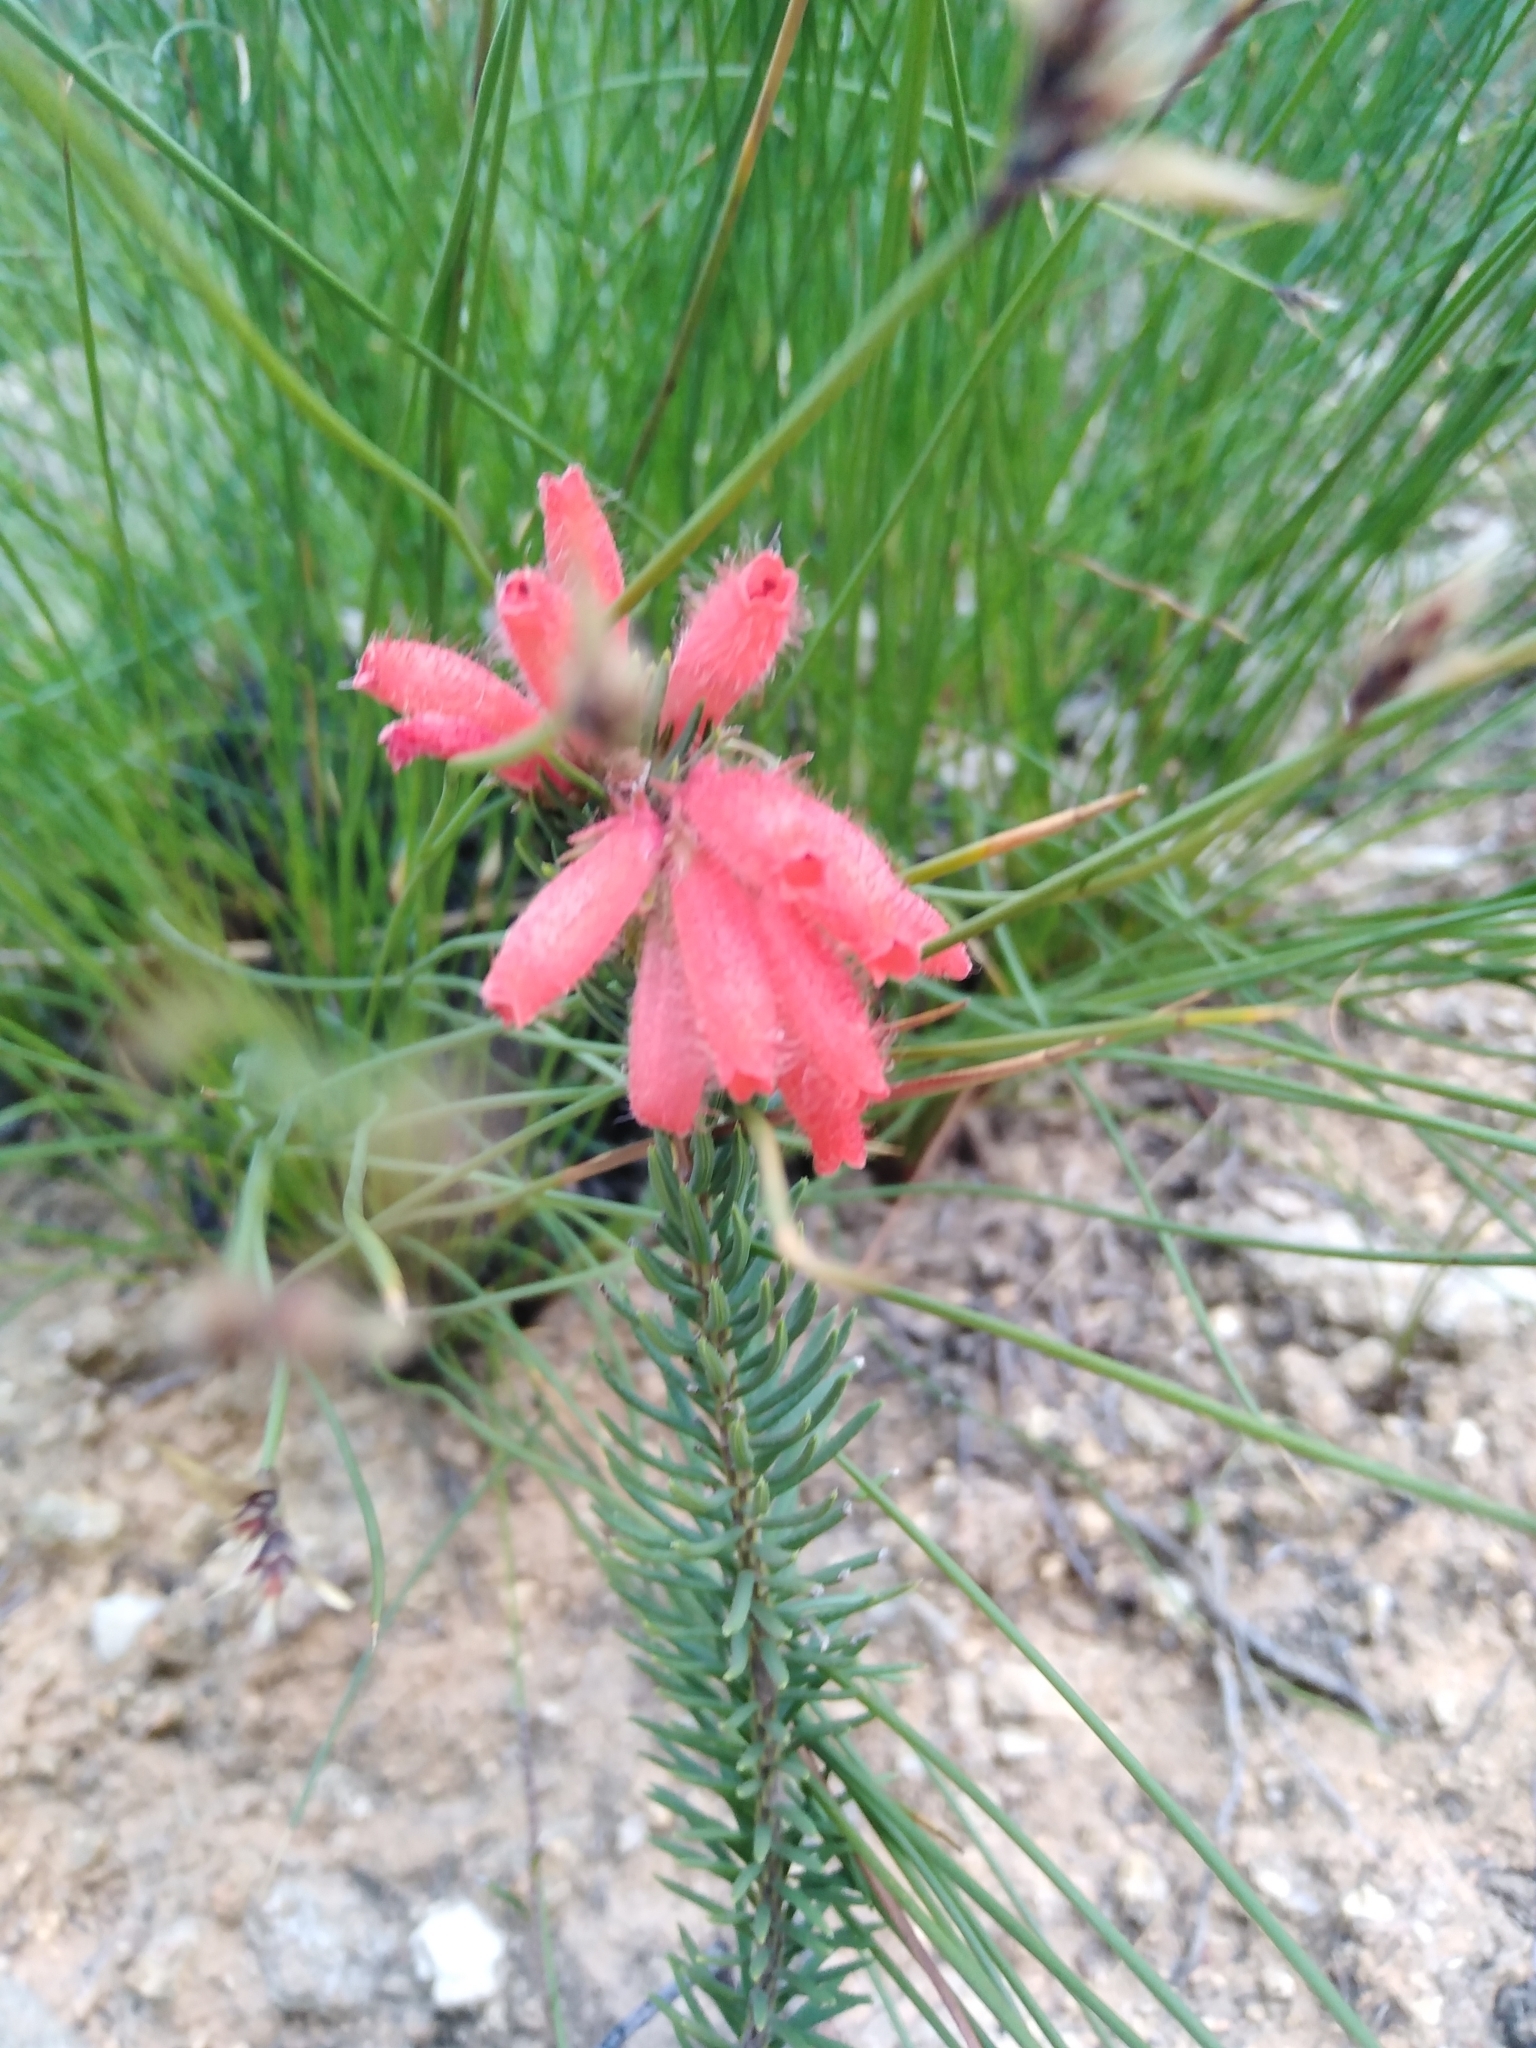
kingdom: Plantae
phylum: Tracheophyta
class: Magnoliopsida
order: Ericales
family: Ericaceae
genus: Erica
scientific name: Erica cerinthoides
